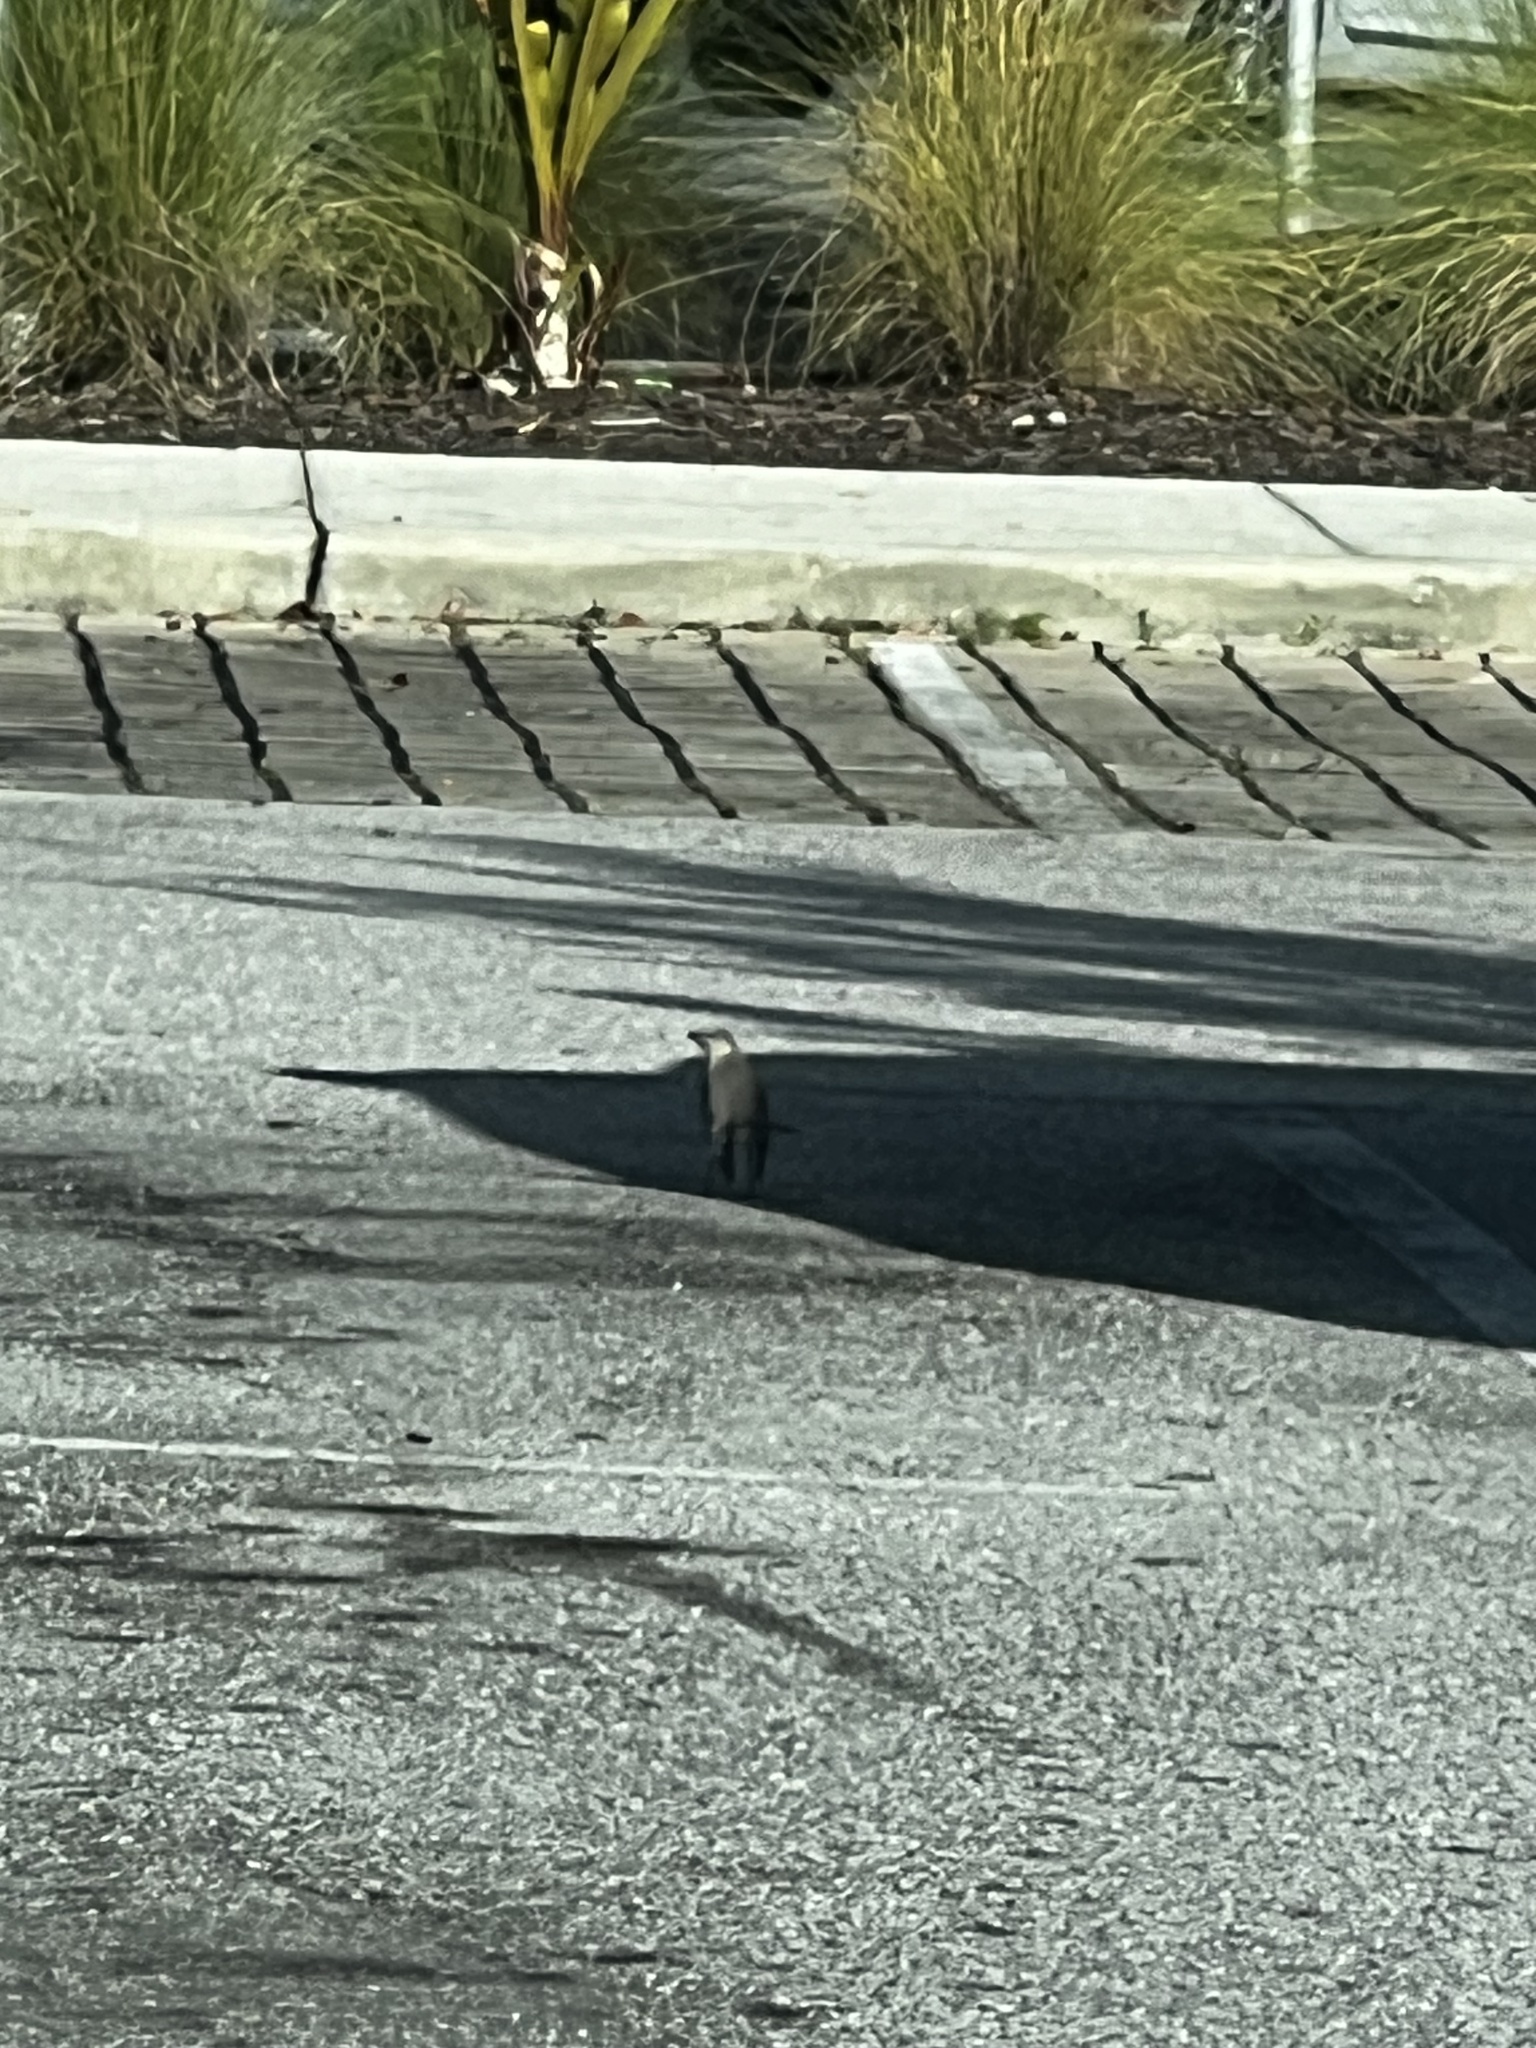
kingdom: Animalia
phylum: Chordata
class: Aves
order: Passeriformes
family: Mimidae
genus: Mimus
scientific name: Mimus polyglottos
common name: Northern mockingbird
